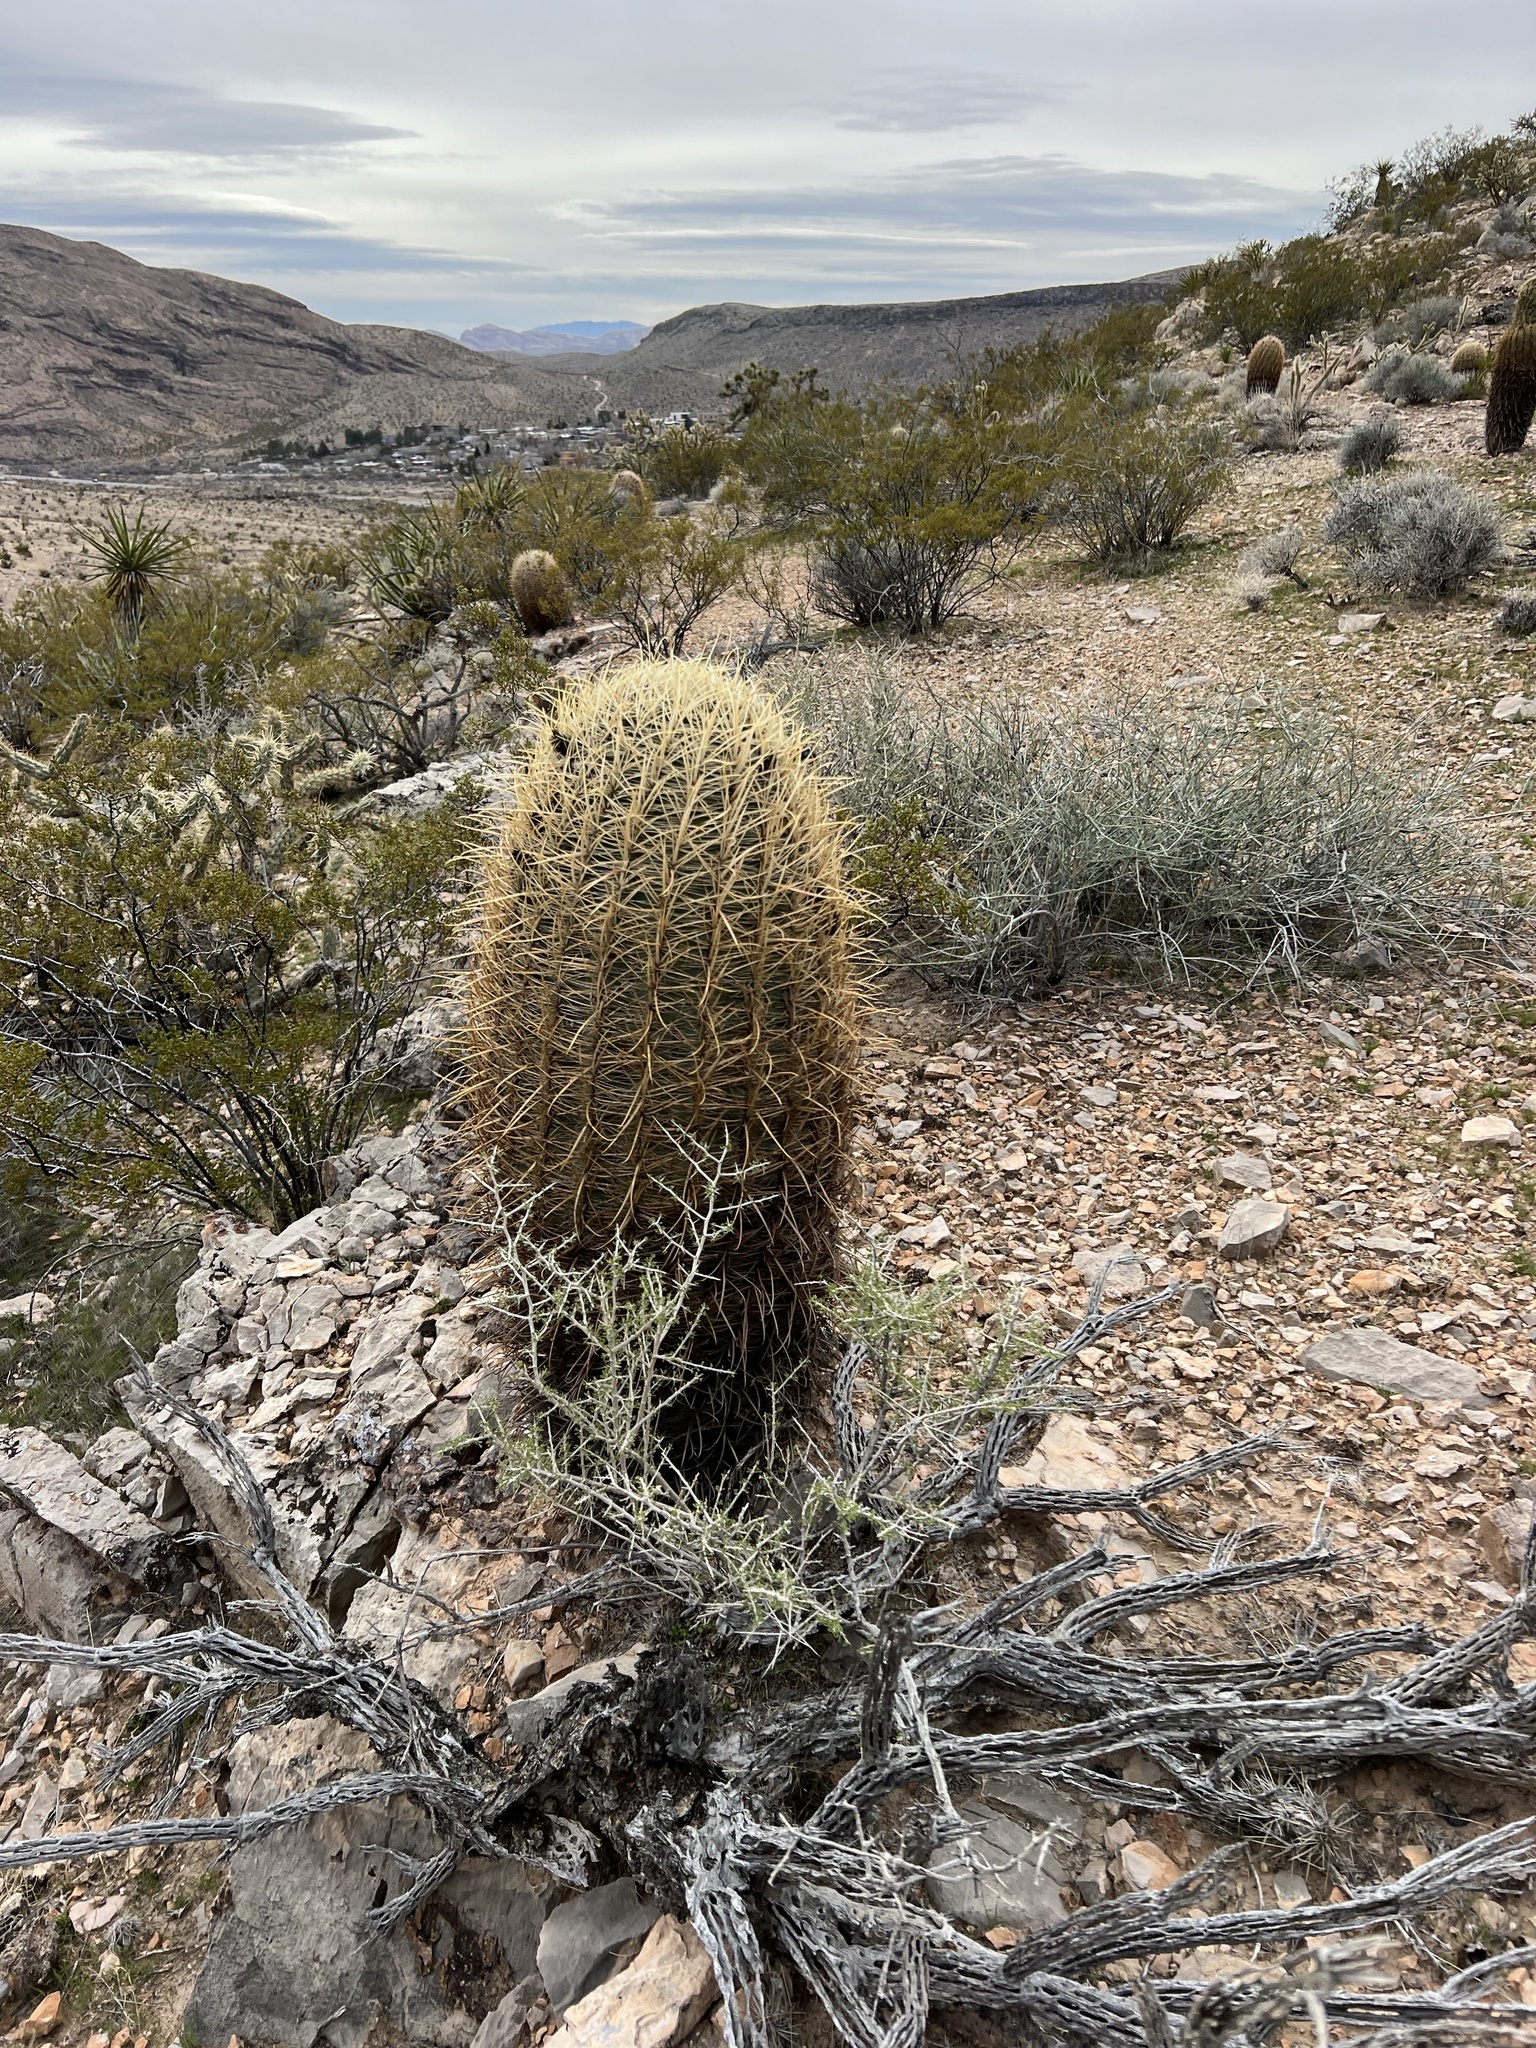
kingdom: Plantae
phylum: Tracheophyta
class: Magnoliopsida
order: Caryophyllales
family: Cactaceae
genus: Ferocactus
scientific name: Ferocactus cylindraceus
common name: California barrel cactus
